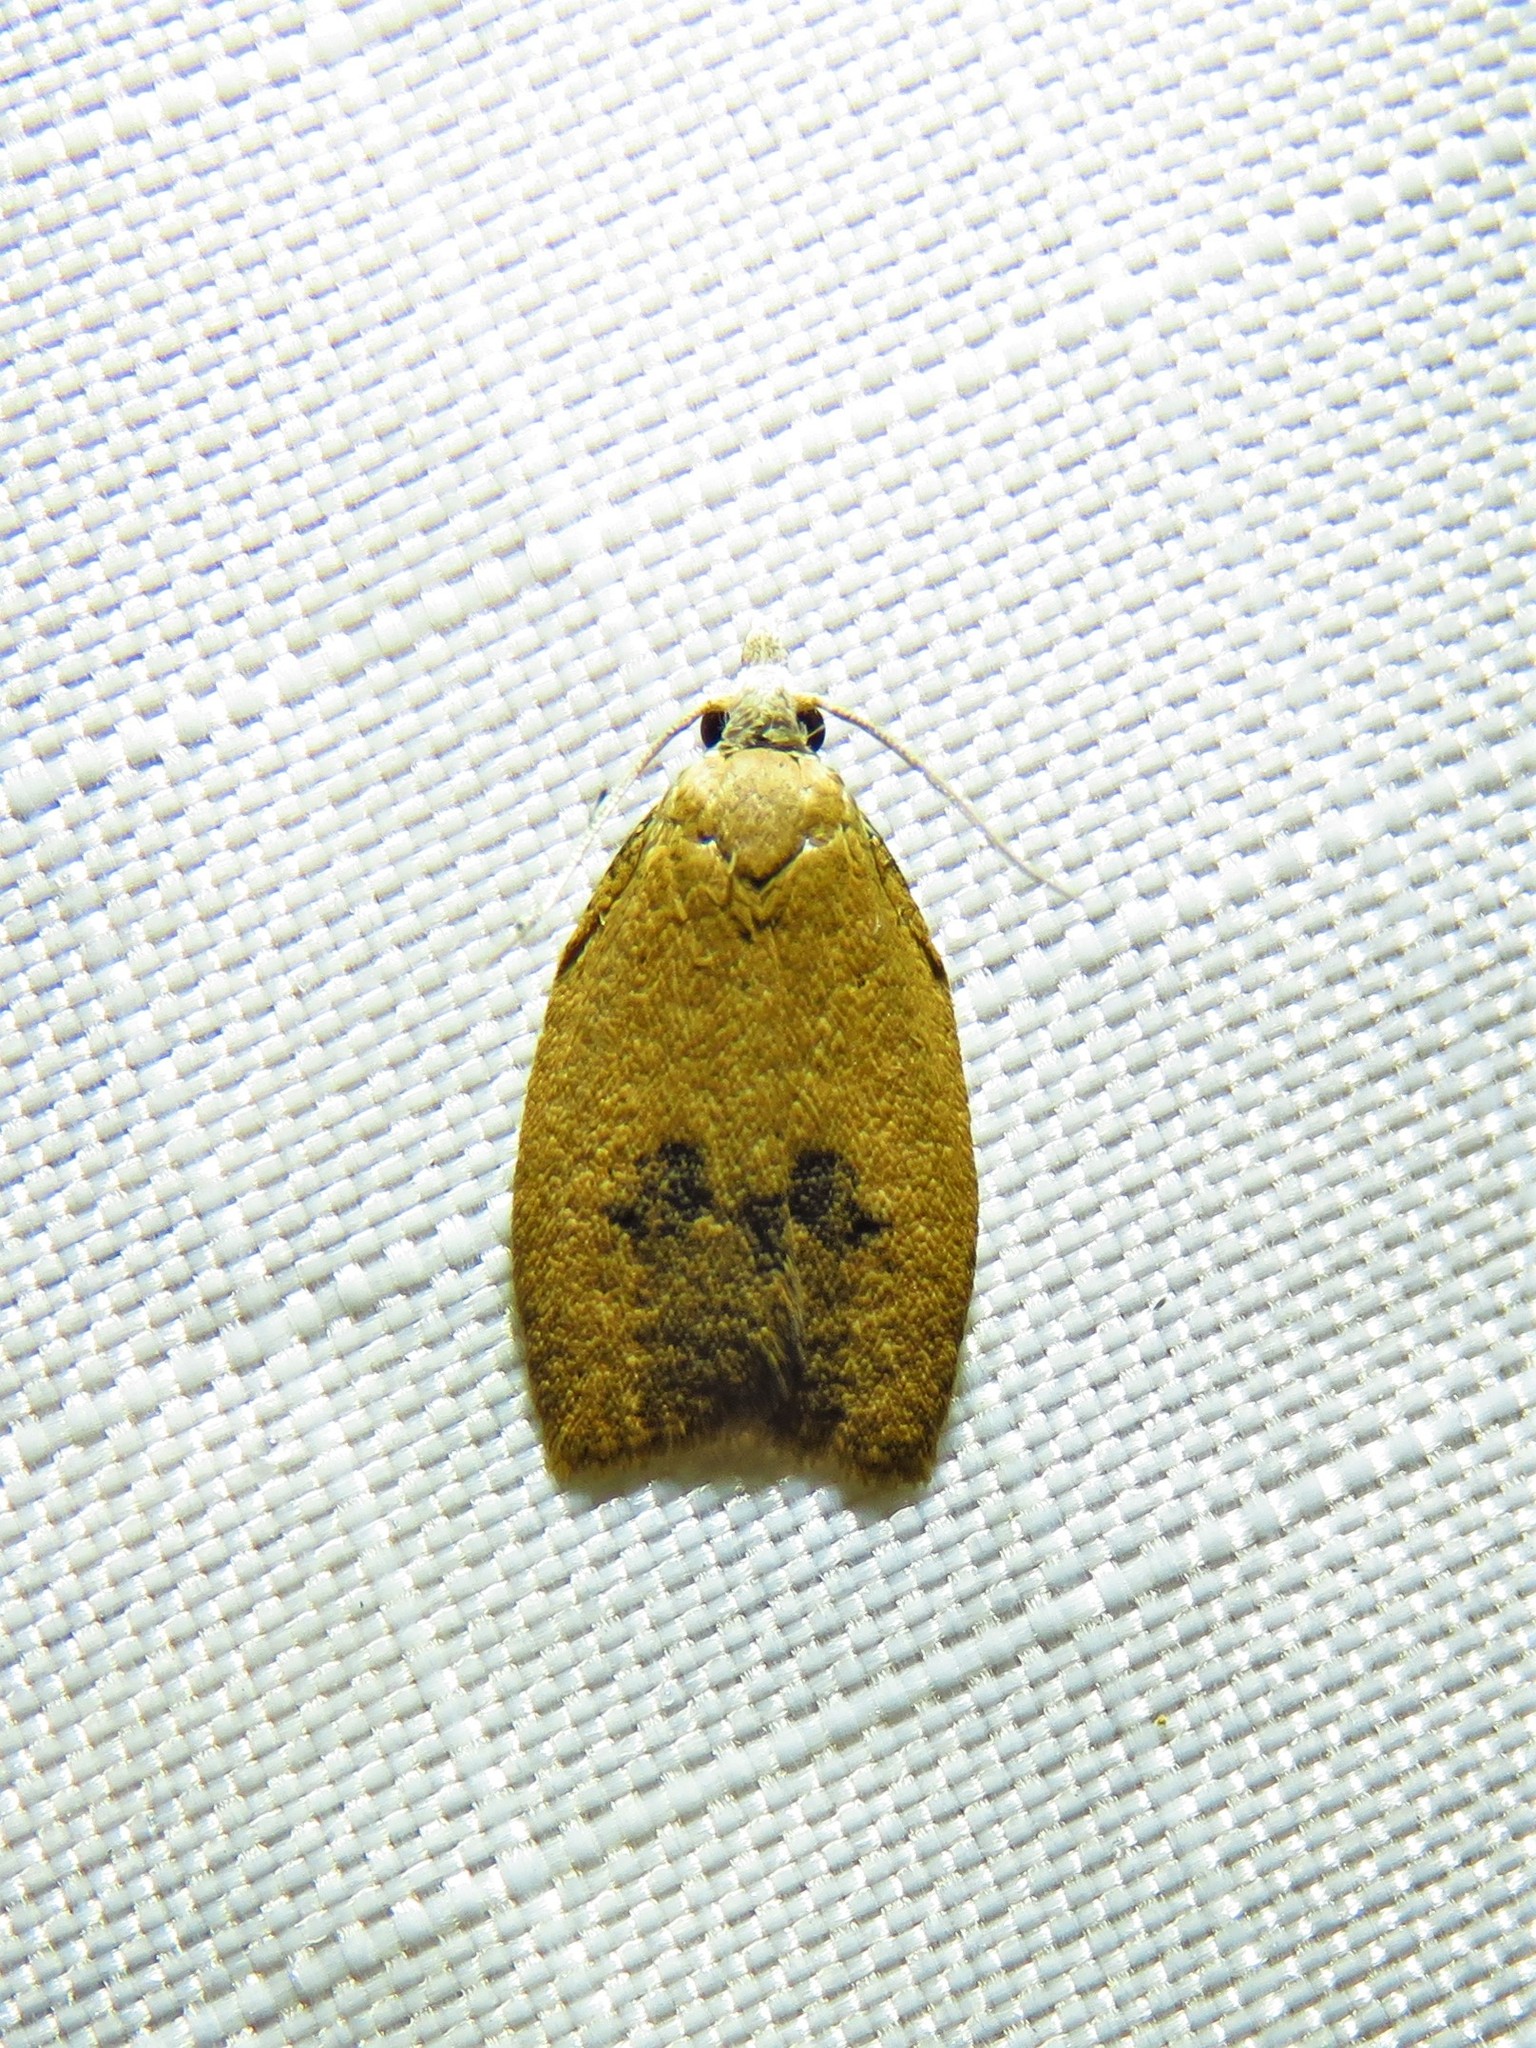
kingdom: Animalia
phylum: Arthropoda
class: Insecta
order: Lepidoptera
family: Tortricidae
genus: Sparganothoides
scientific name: Sparganothoides lentiginosana
